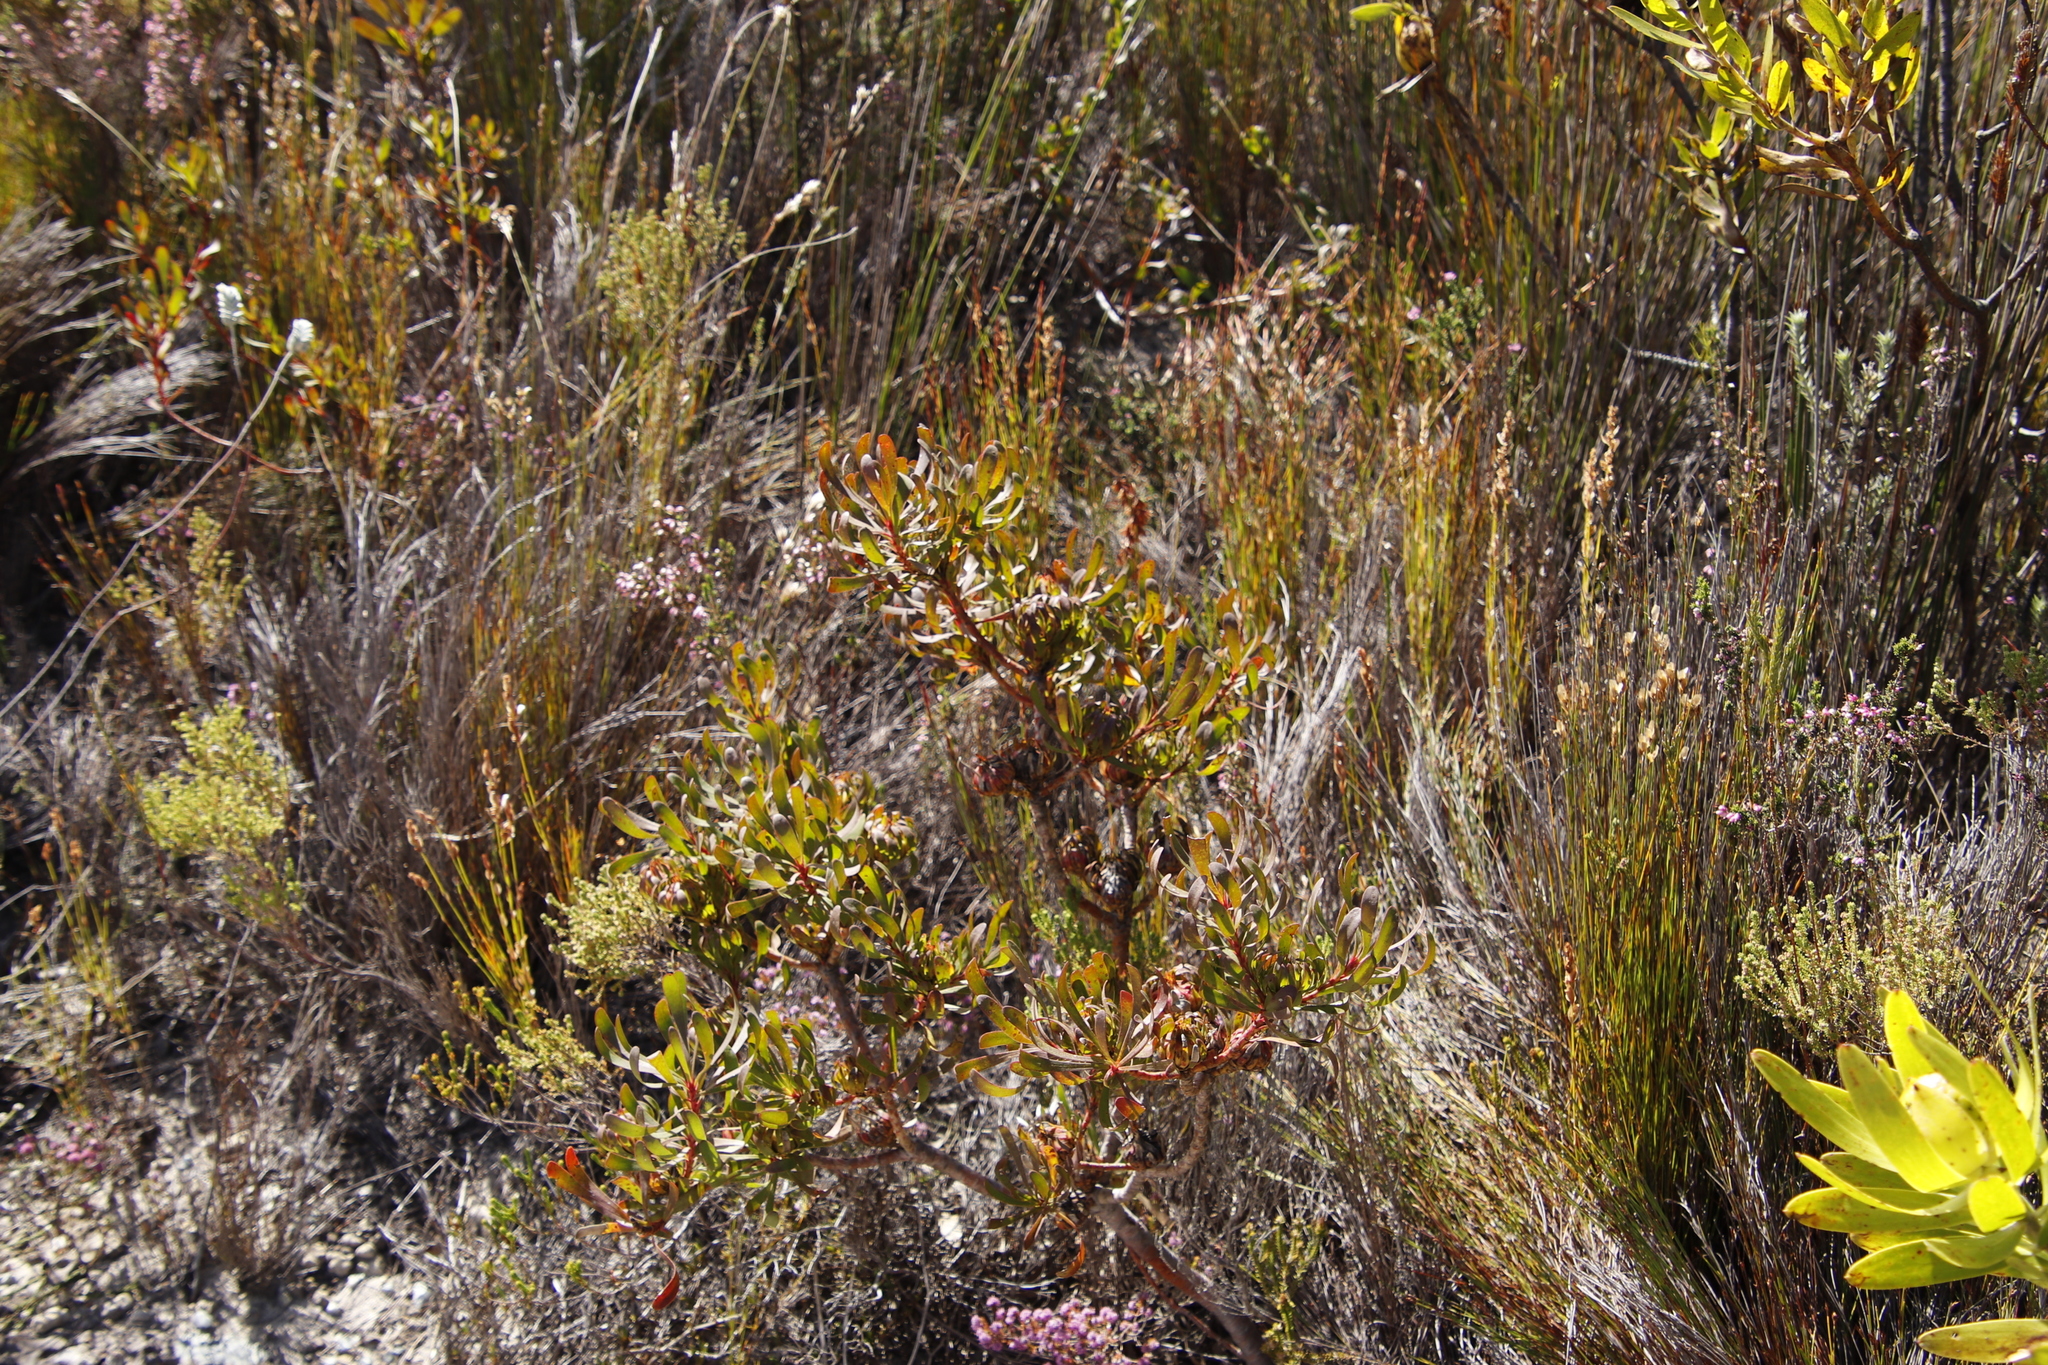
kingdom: Plantae
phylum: Tracheophyta
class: Magnoliopsida
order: Proteales
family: Proteaceae
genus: Aulax
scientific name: Aulax umbellata
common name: Broad-leaf featherbush
